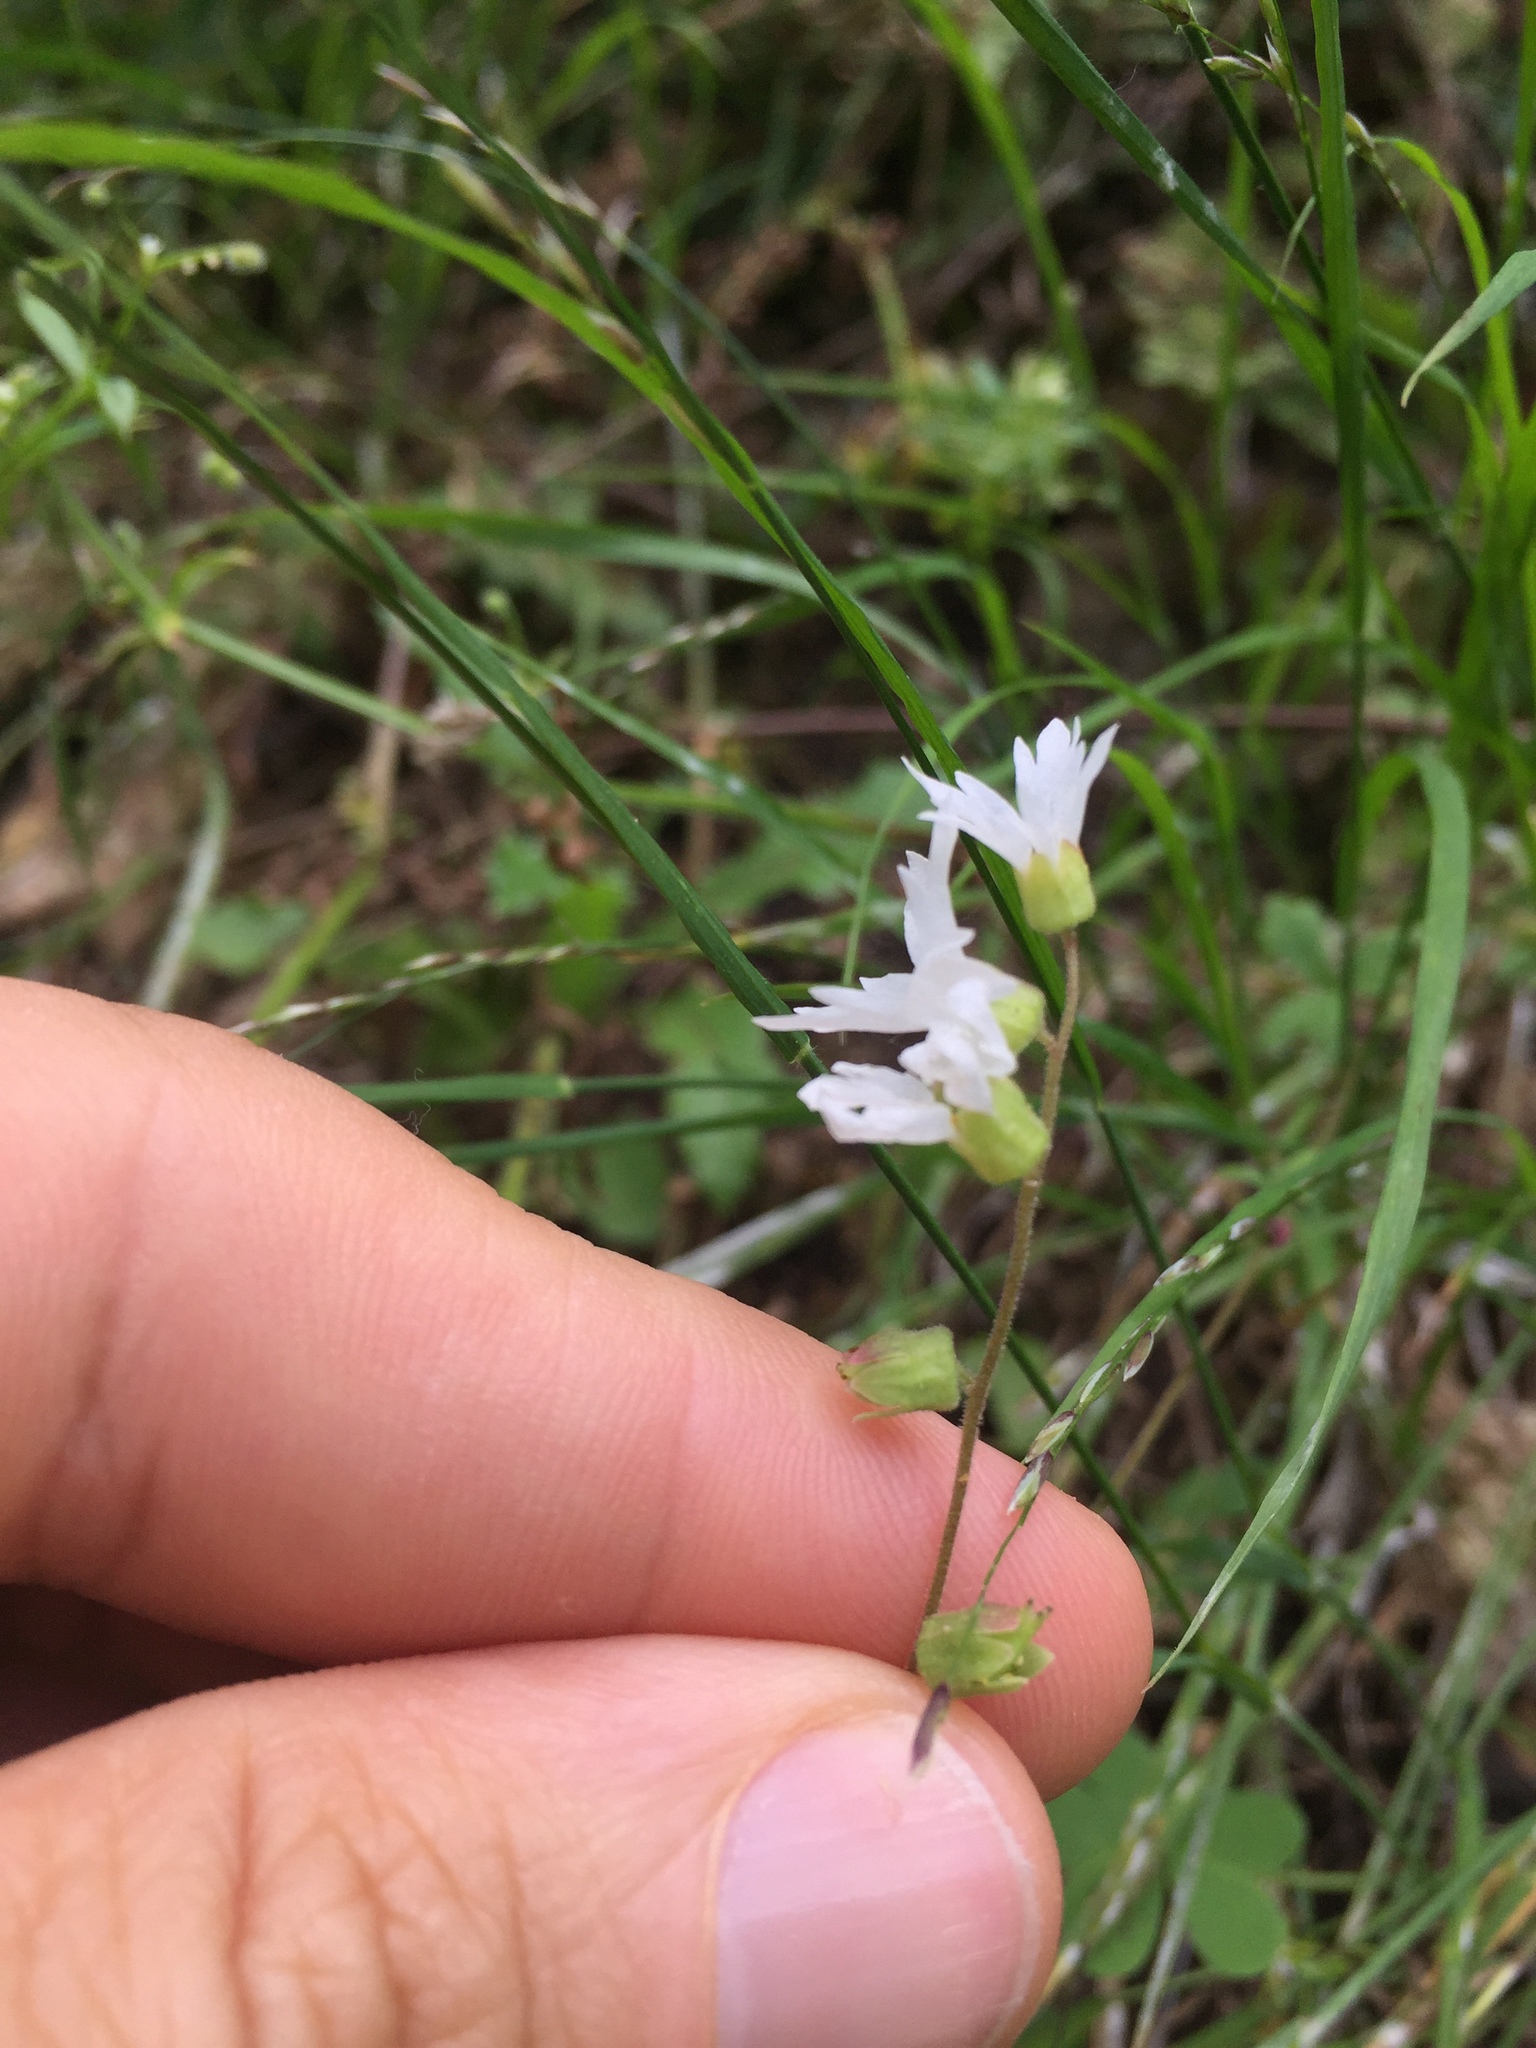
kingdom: Plantae
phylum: Tracheophyta
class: Magnoliopsida
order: Saxifragales
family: Saxifragaceae
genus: Lithophragma
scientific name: Lithophragma heterophyllum
